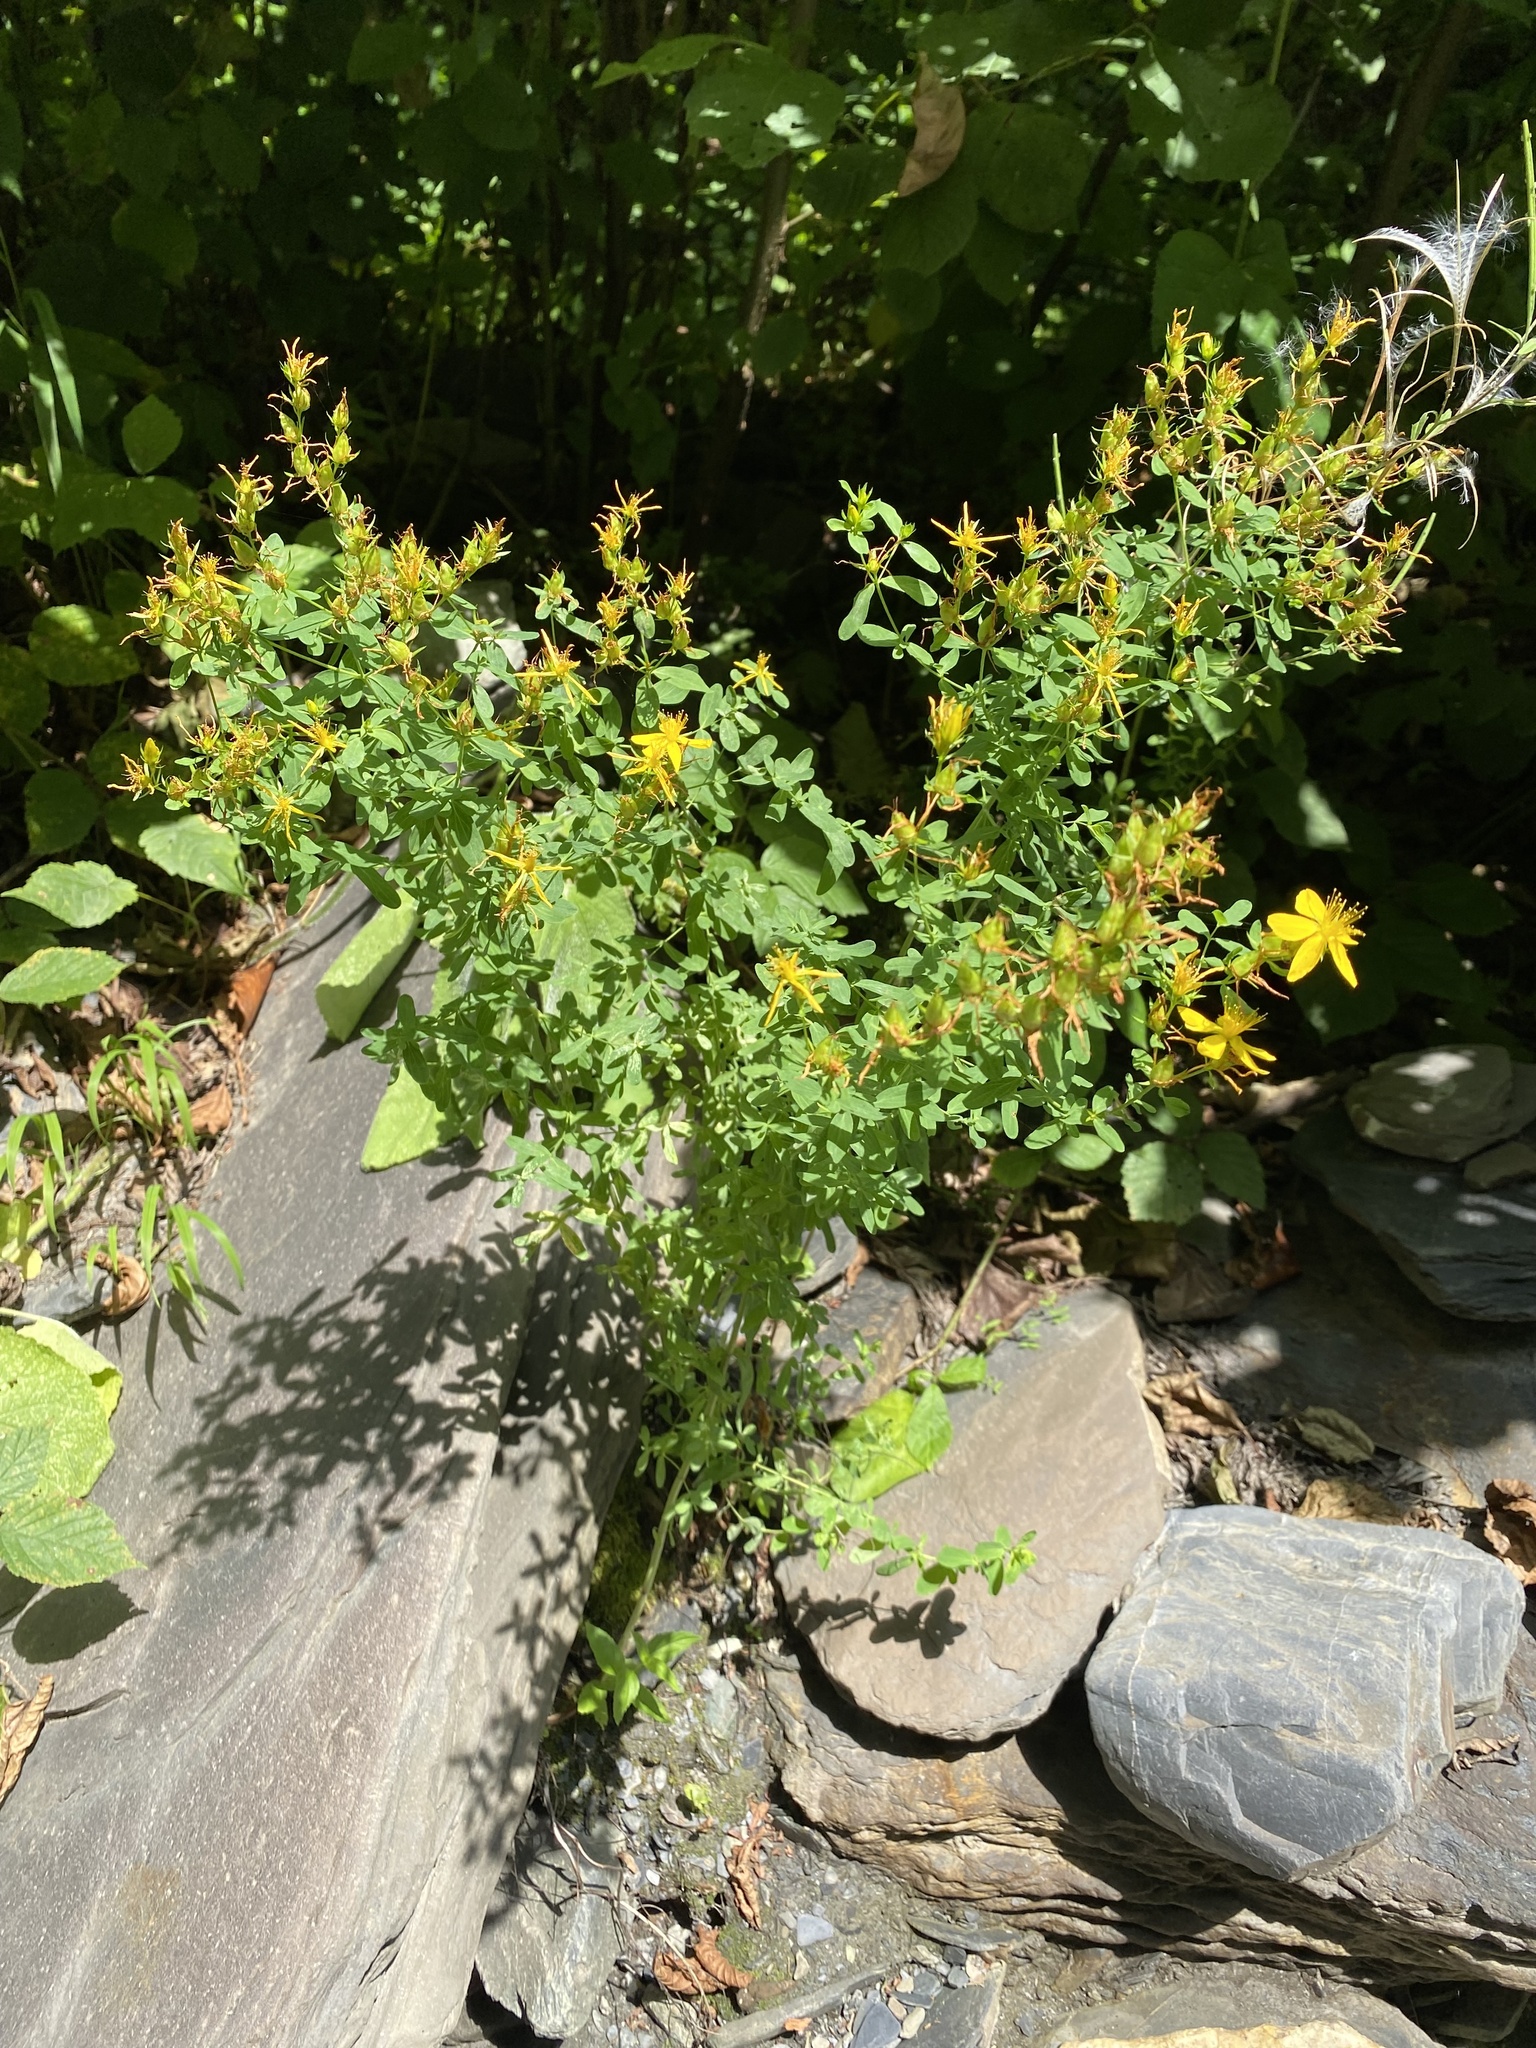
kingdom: Plantae
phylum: Tracheophyta
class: Magnoliopsida
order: Malpighiales
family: Hypericaceae
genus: Hypericum
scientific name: Hypericum perforatum
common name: Common st. johnswort
